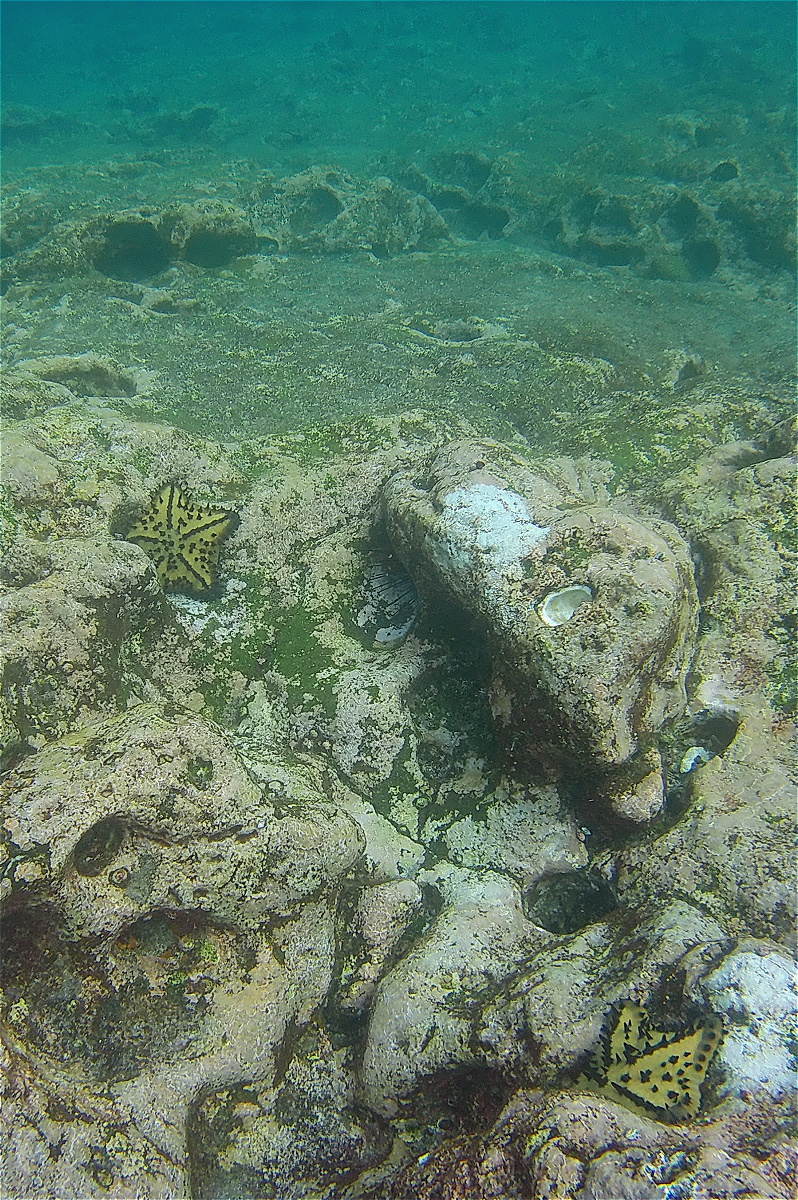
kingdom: Animalia
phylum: Echinodermata
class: Asteroidea
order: Valvatida
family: Oreasteridae
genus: Nidorellia
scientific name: Nidorellia armata
